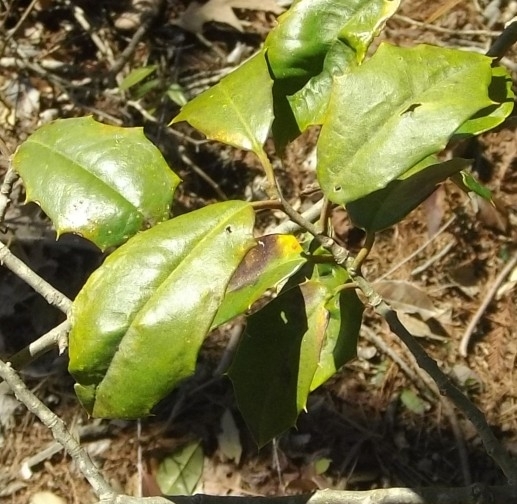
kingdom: Plantae
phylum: Tracheophyta
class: Magnoliopsida
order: Aquifoliales
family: Aquifoliaceae
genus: Ilex
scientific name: Ilex opaca
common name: American holly
